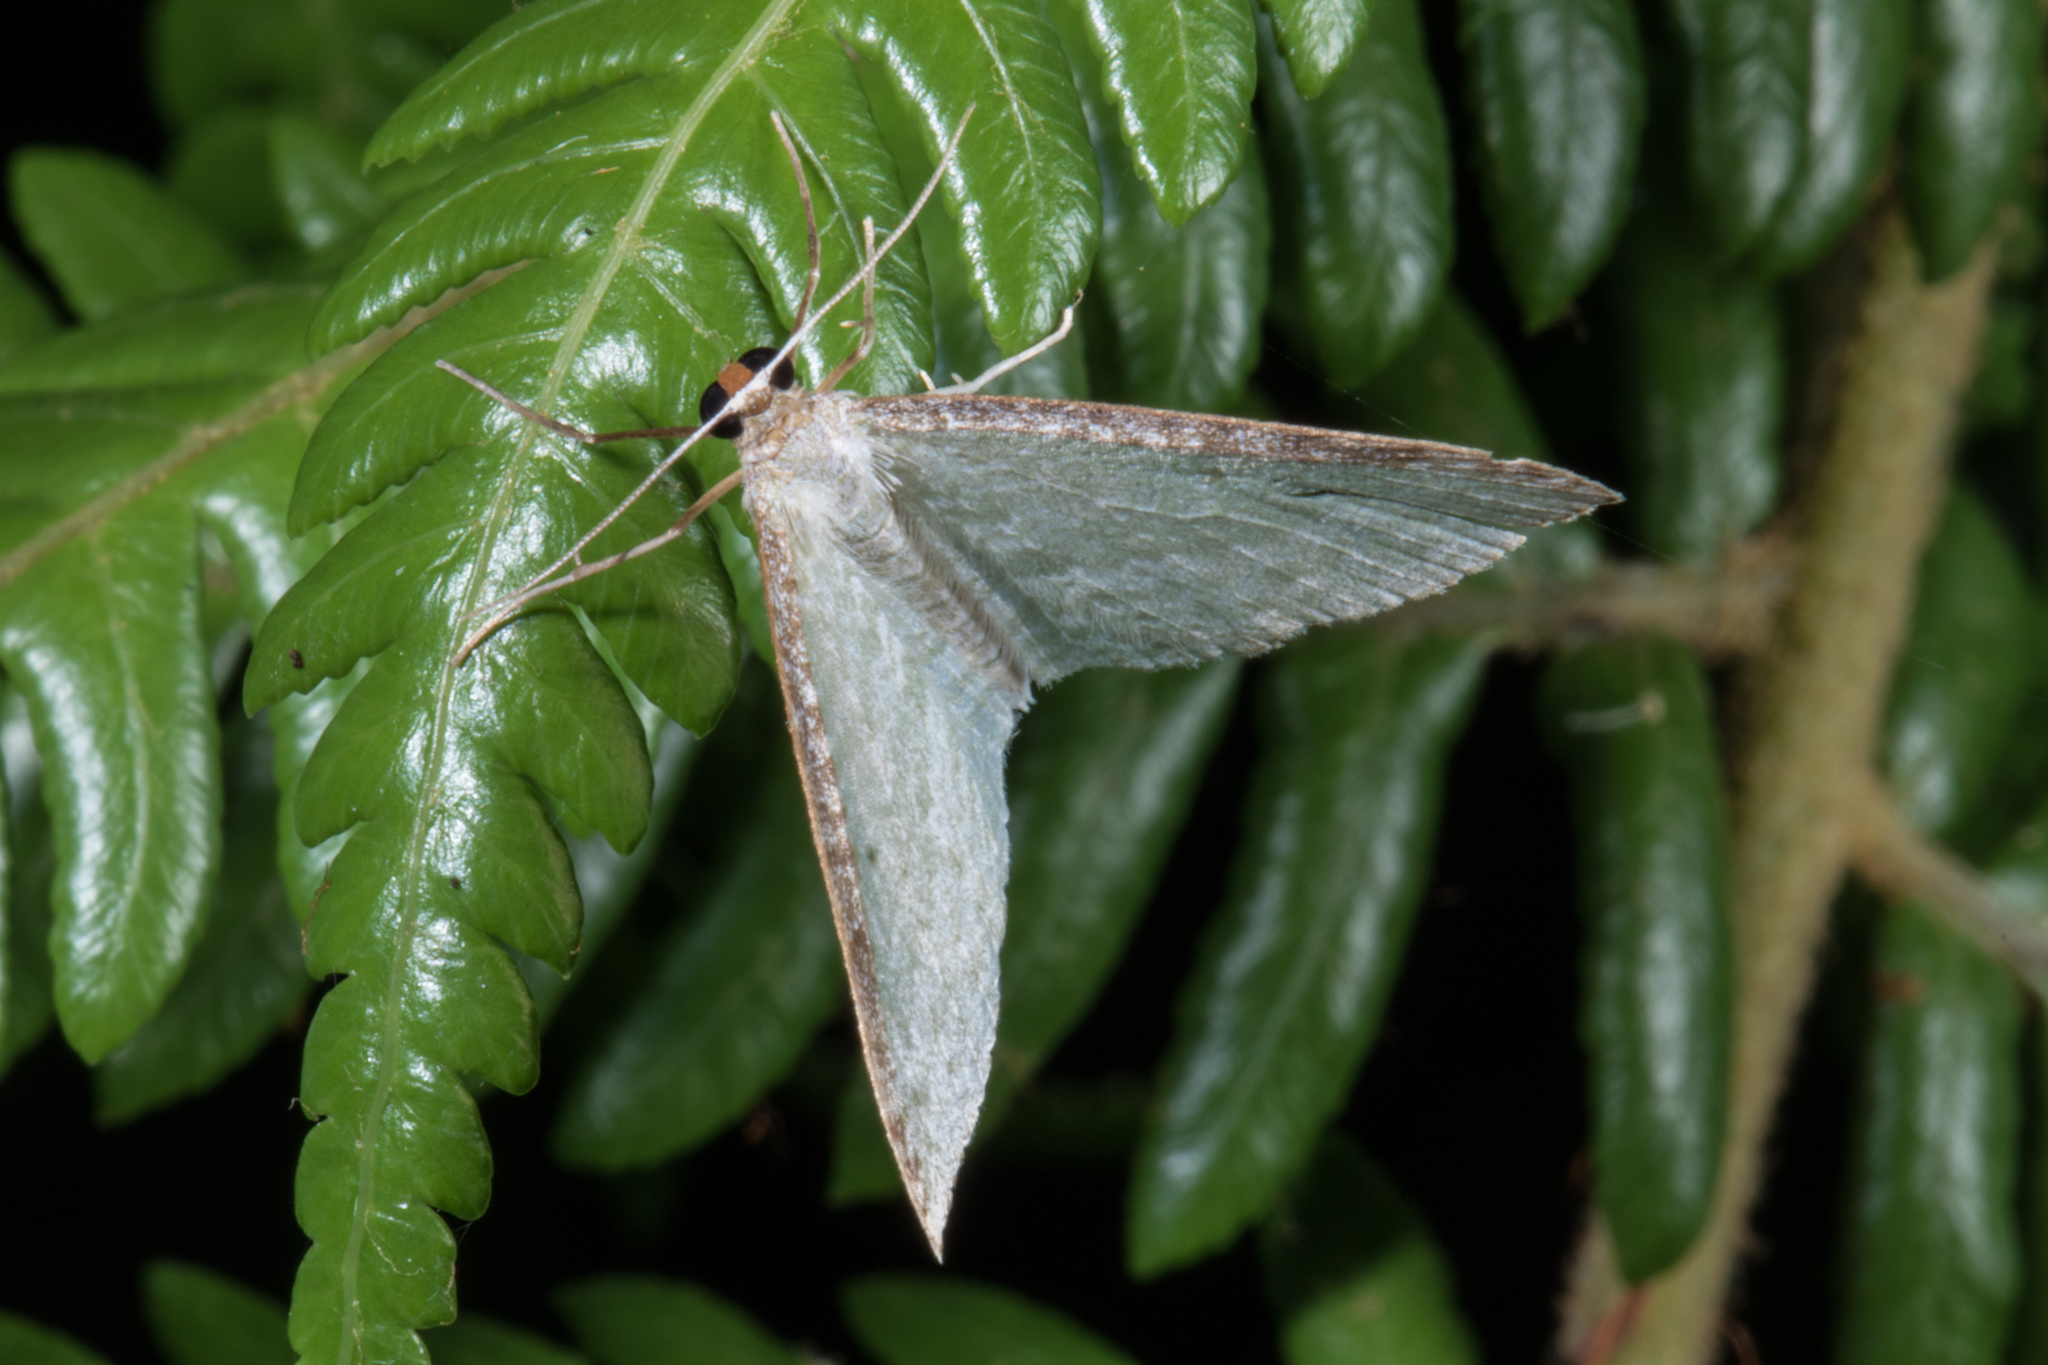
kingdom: Animalia
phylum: Arthropoda
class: Insecta
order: Lepidoptera
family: Geometridae
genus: Poecilasthena
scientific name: Poecilasthena pulchraria
